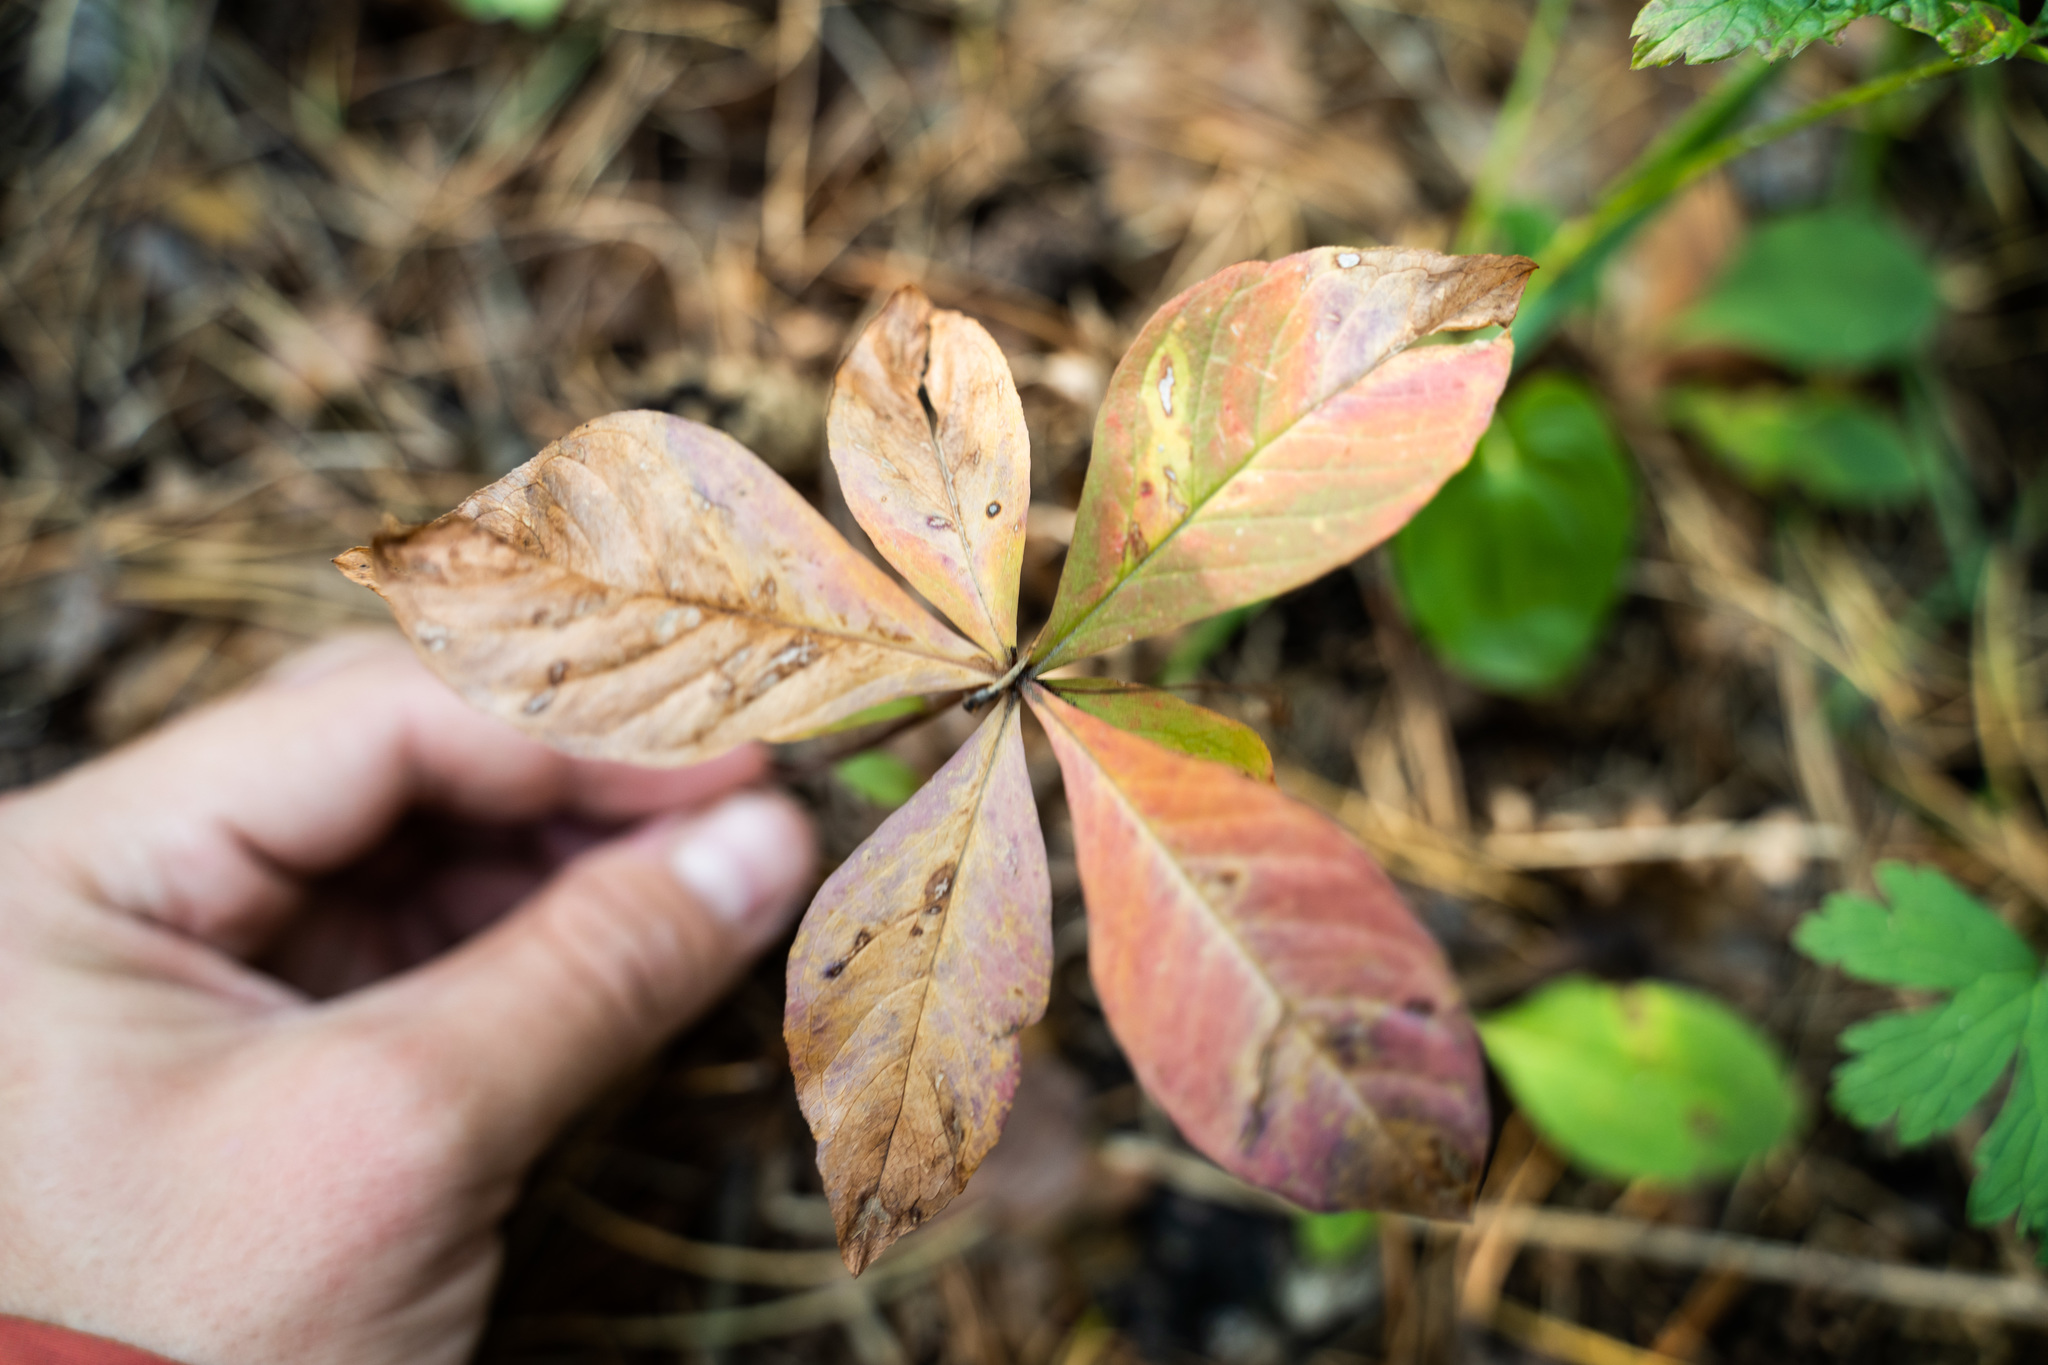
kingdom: Plantae
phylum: Tracheophyta
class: Magnoliopsida
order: Ericales
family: Primulaceae
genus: Lysimachia
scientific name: Lysimachia europaea
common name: Arctic starflower
